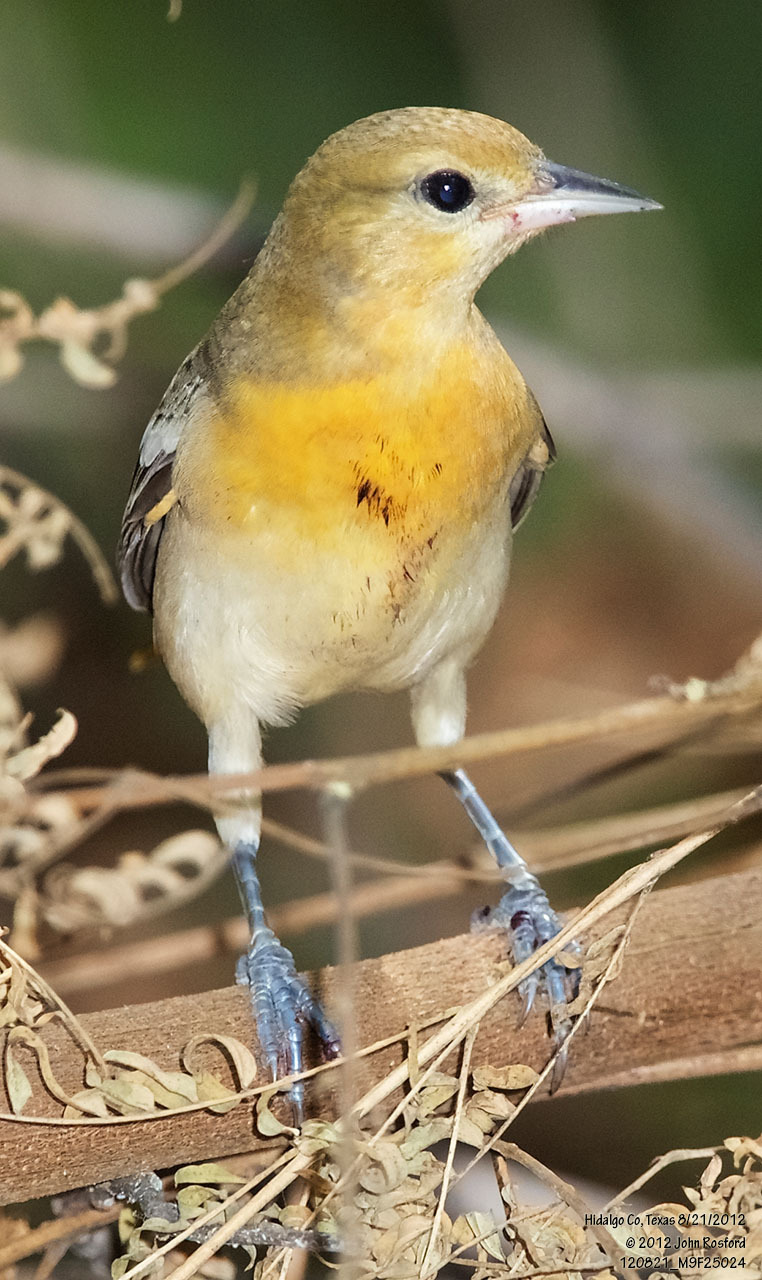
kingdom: Animalia
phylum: Chordata
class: Aves
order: Passeriformes
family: Icteridae
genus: Icterus
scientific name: Icterus galbula
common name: Baltimore oriole
